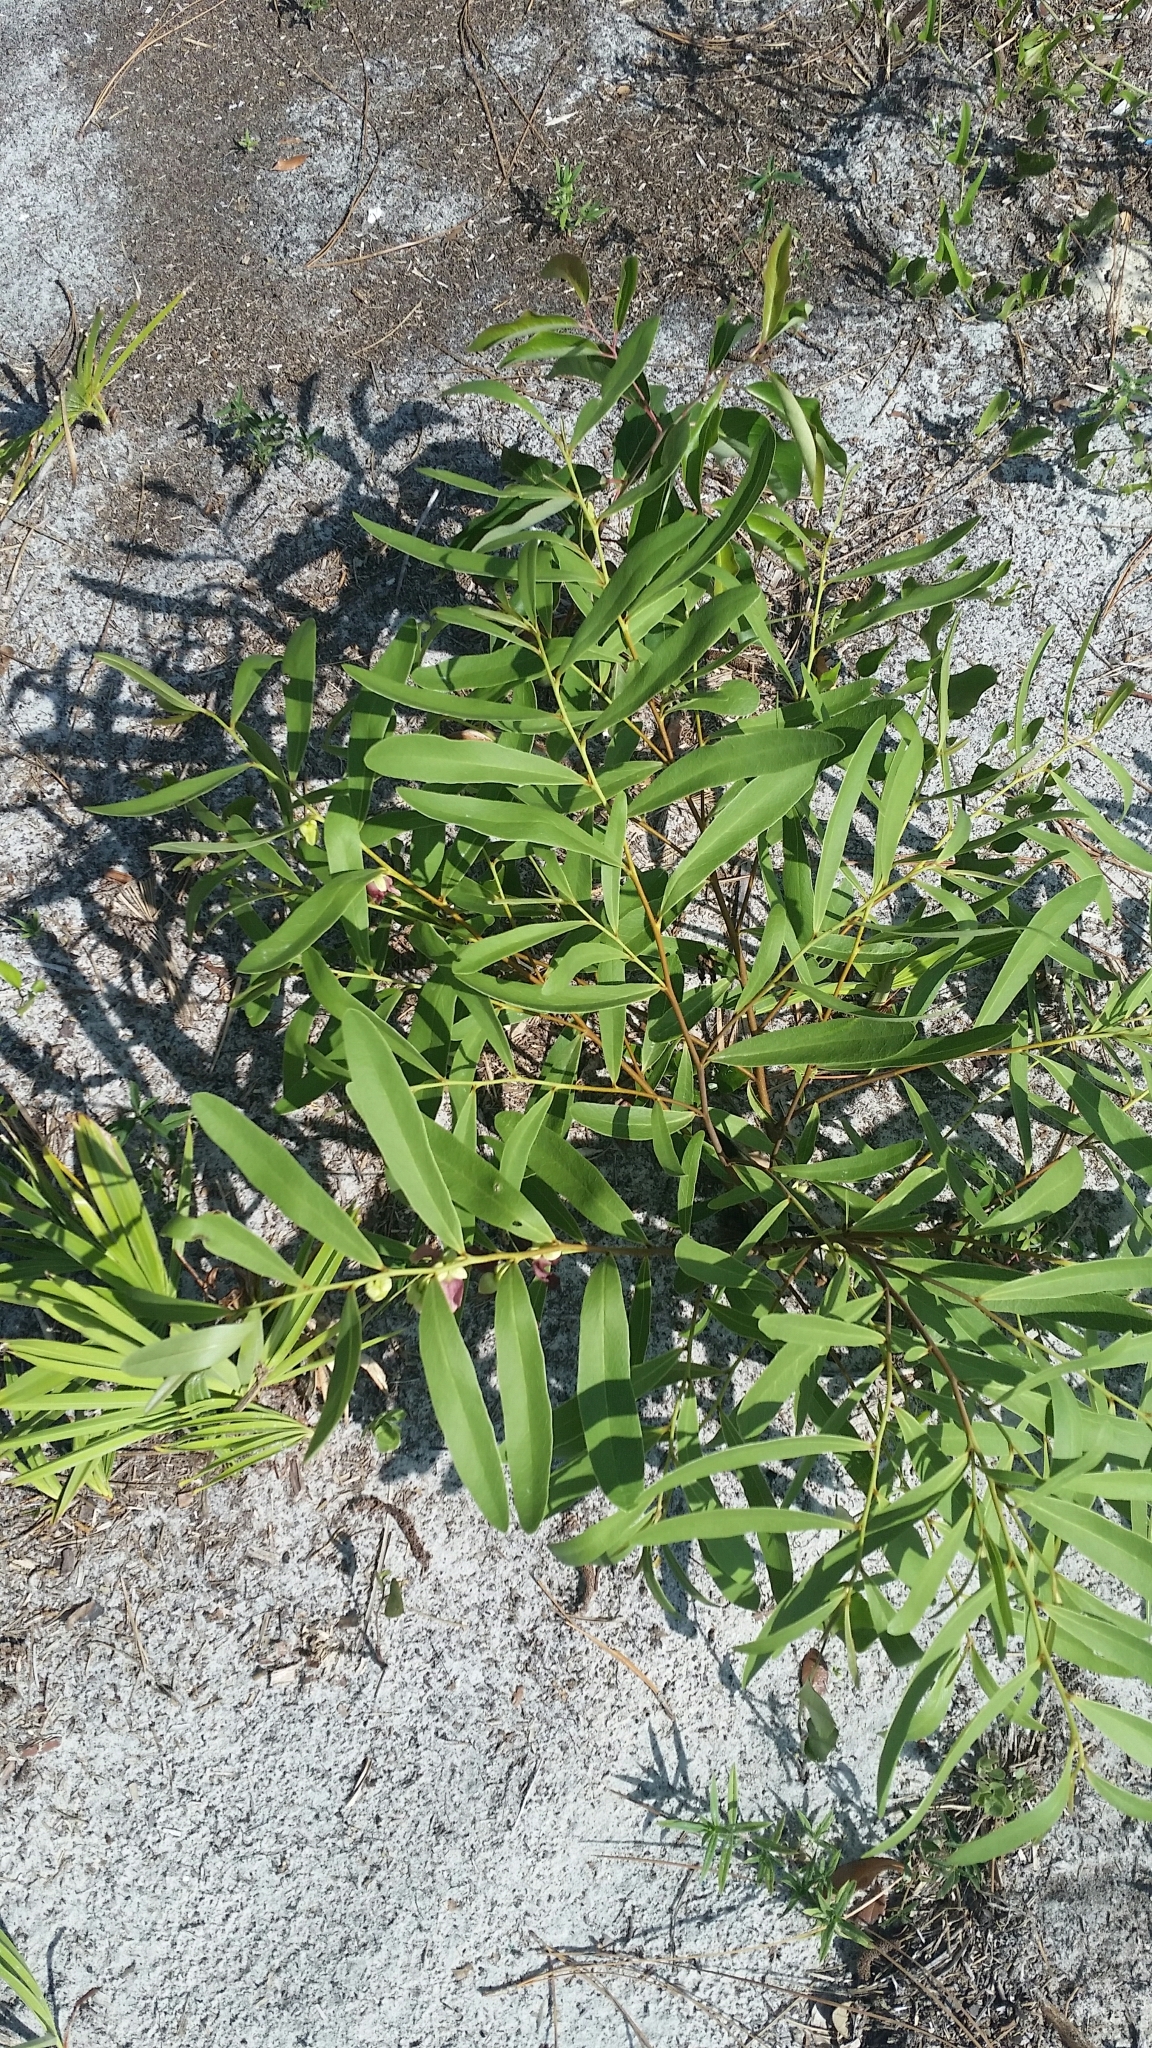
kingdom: Plantae
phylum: Tracheophyta
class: Magnoliopsida
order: Magnoliales
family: Annonaceae
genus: Asimina
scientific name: Asimina pygmaea
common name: Dwarf pawpaw
